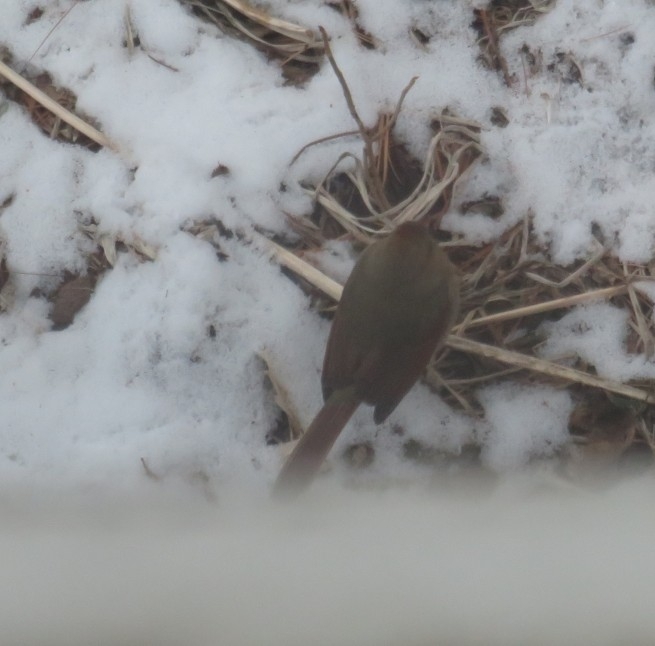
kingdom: Animalia
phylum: Chordata
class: Aves
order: Passeriformes
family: Cardinalidae
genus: Cardinalis
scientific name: Cardinalis cardinalis
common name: Northern cardinal
